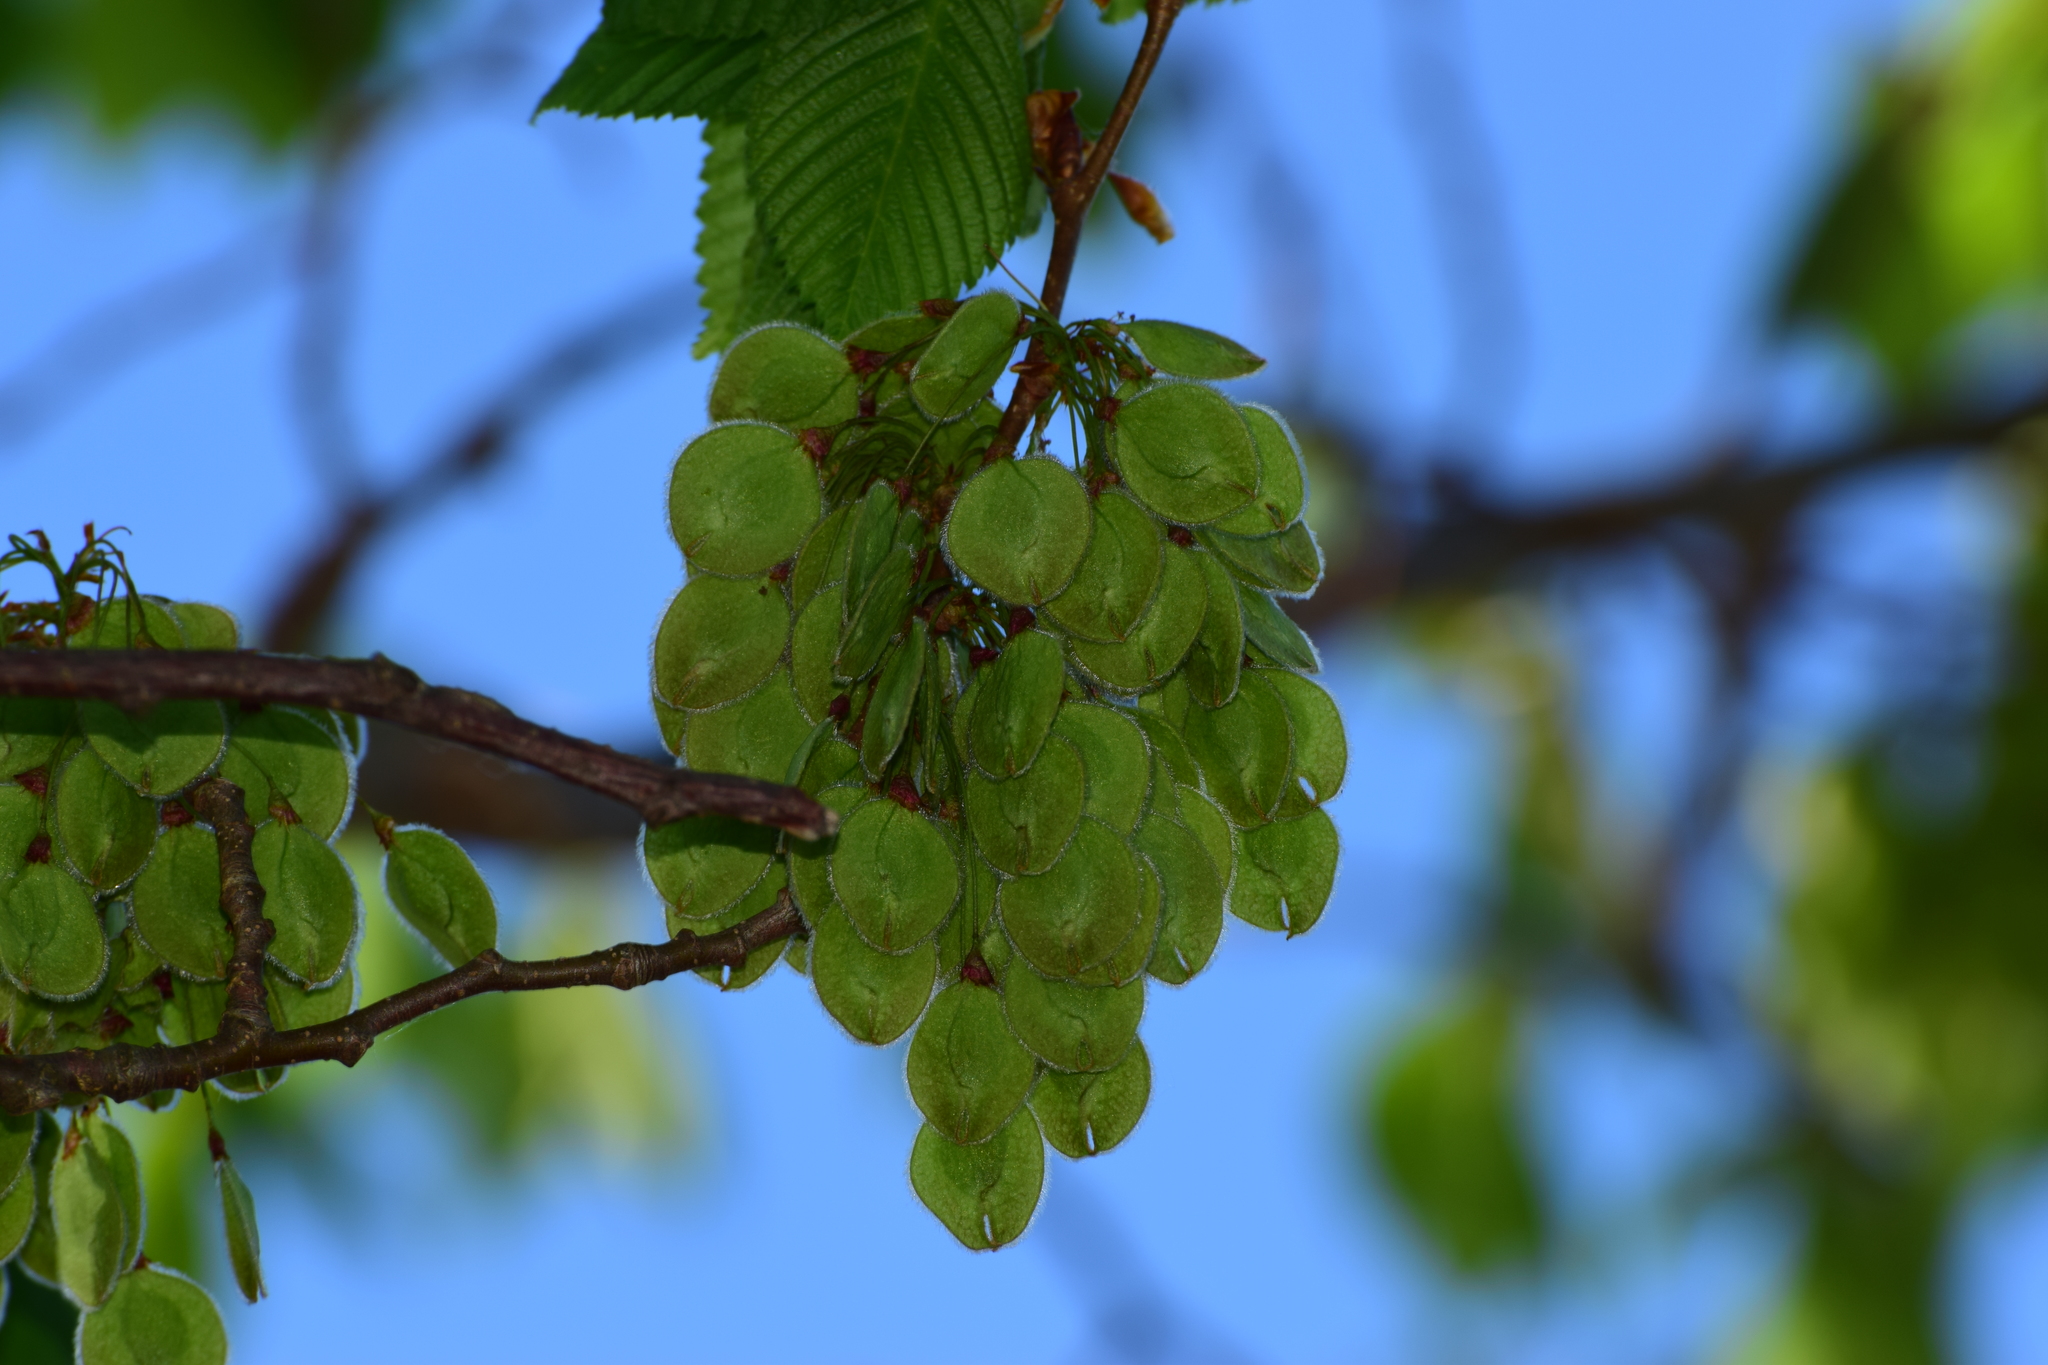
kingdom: Plantae
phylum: Tracheophyta
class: Magnoliopsida
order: Rosales
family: Ulmaceae
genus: Ulmus
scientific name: Ulmus laevis
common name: European white-elm
